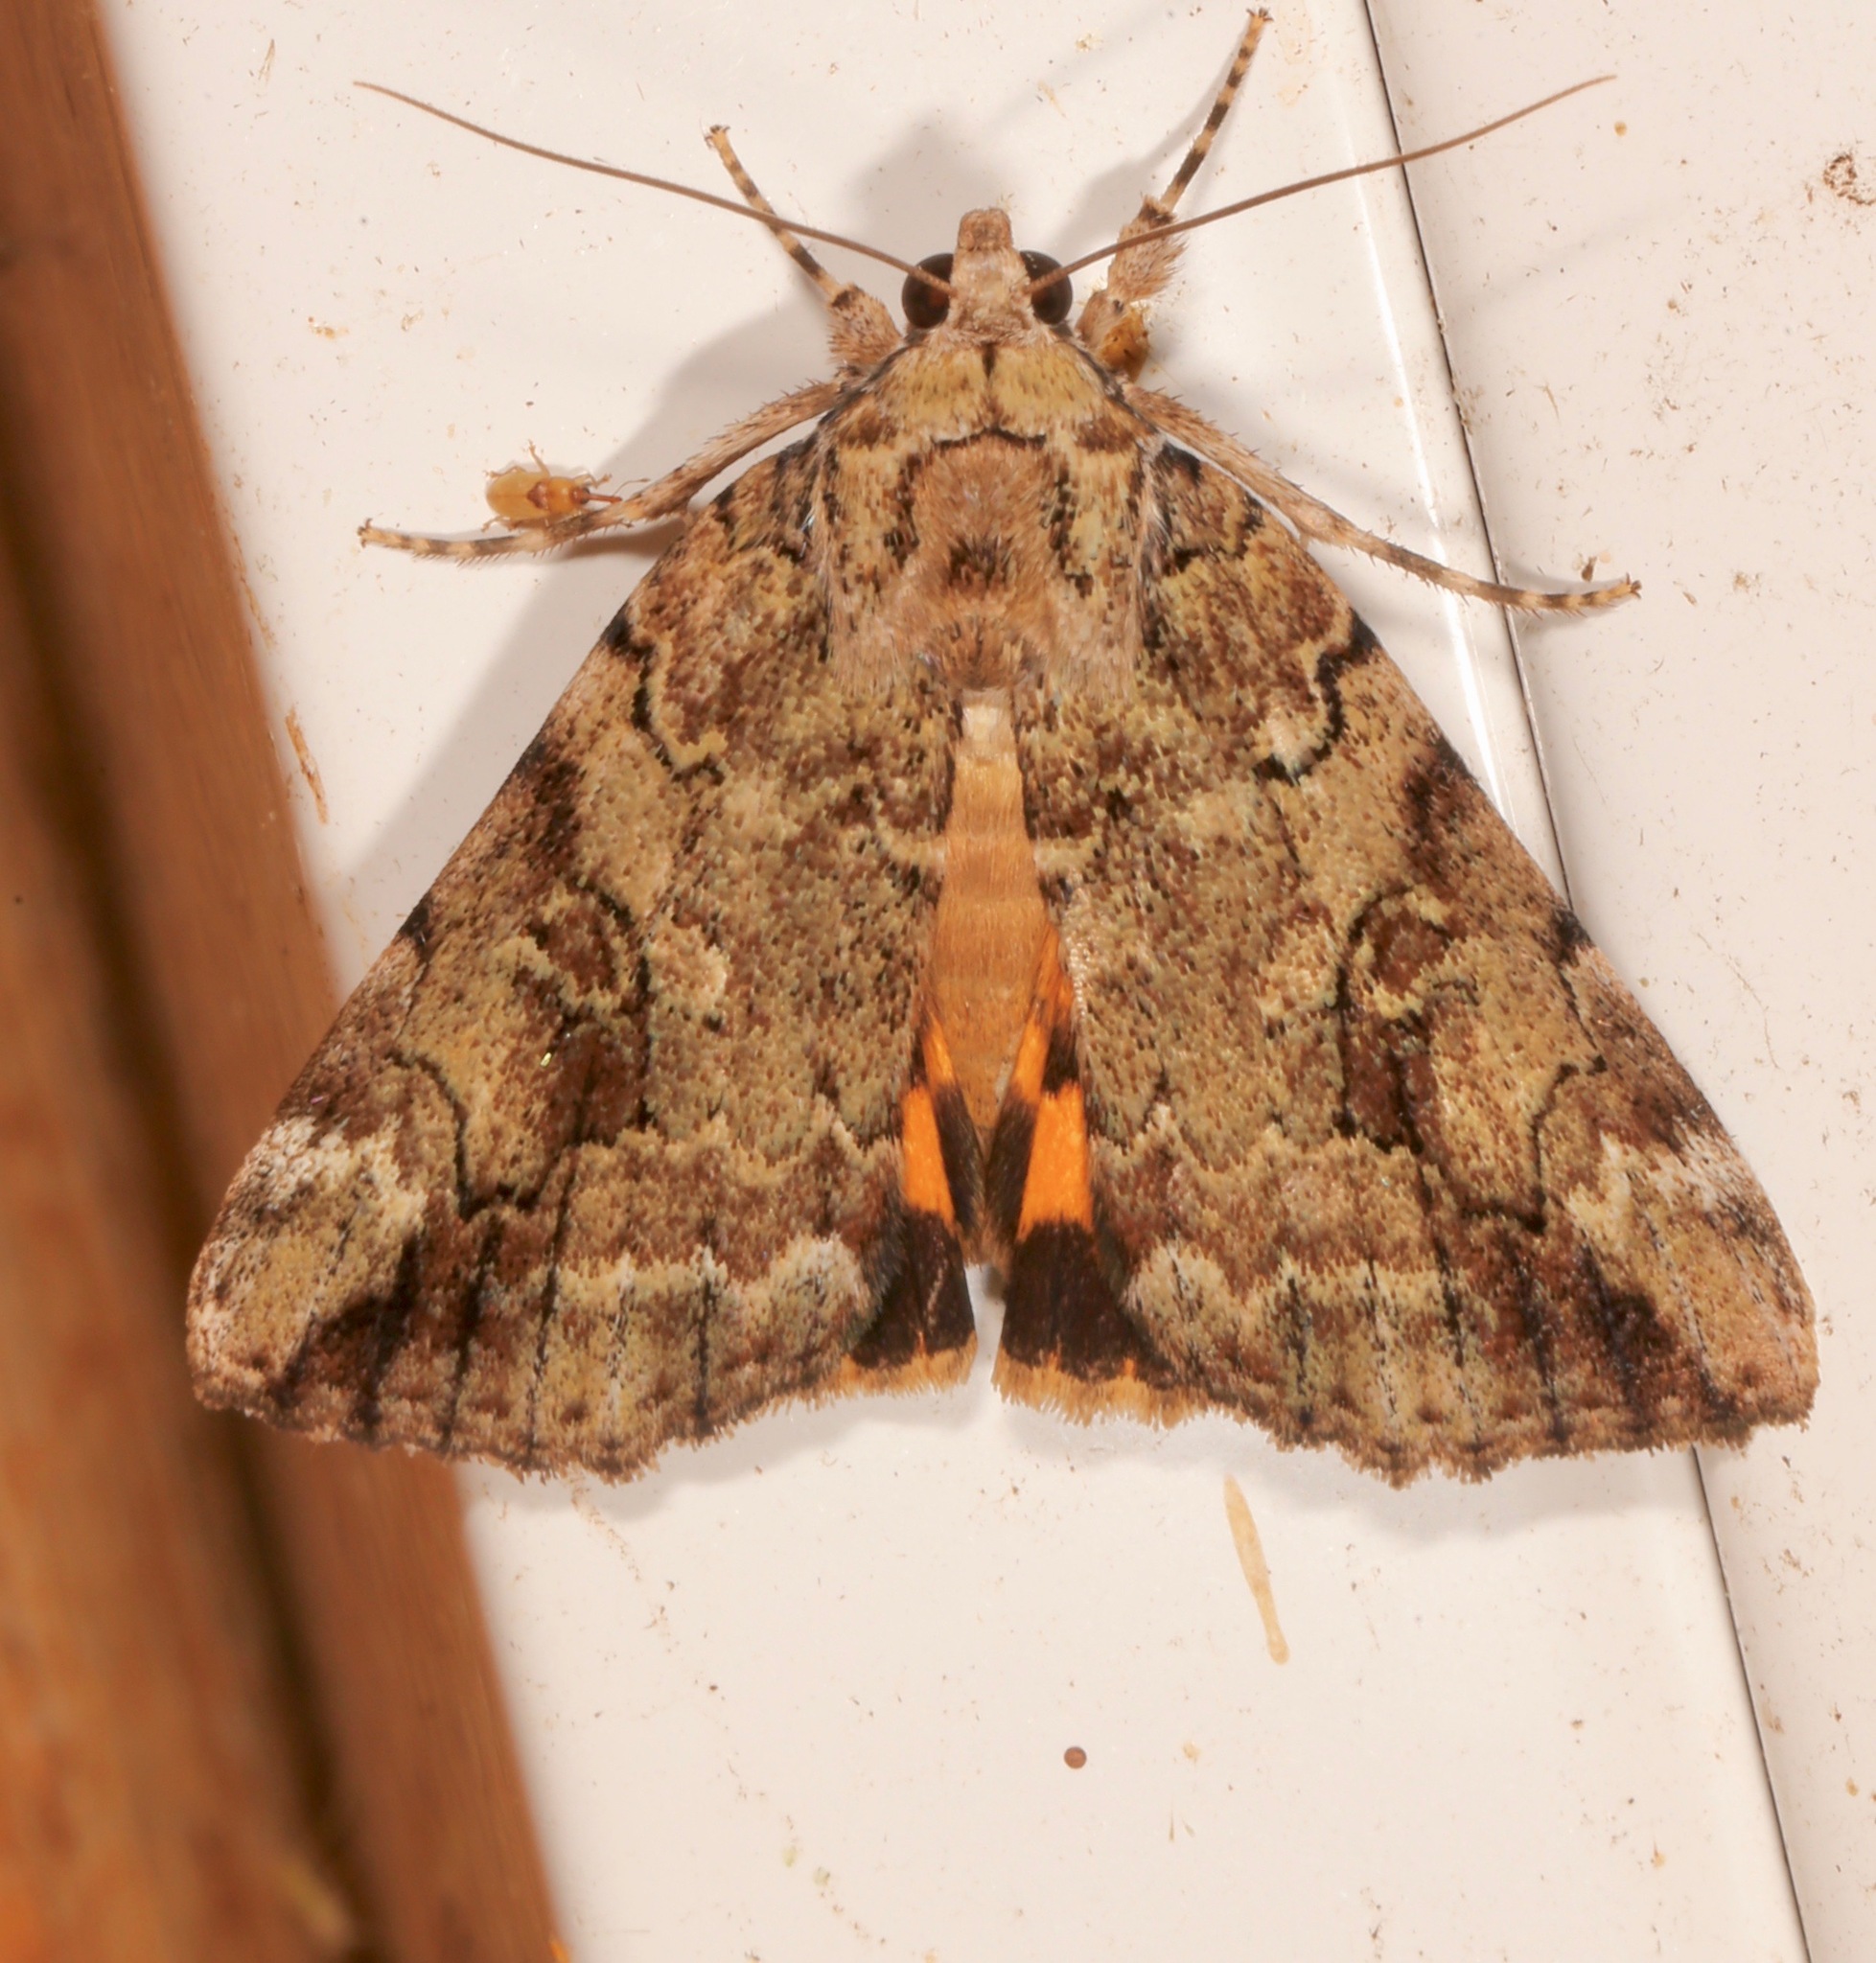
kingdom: Animalia
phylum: Arthropoda
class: Insecta
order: Lepidoptera
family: Erebidae
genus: Catocala
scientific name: Catocala micronympha
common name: Little nymph underwing
